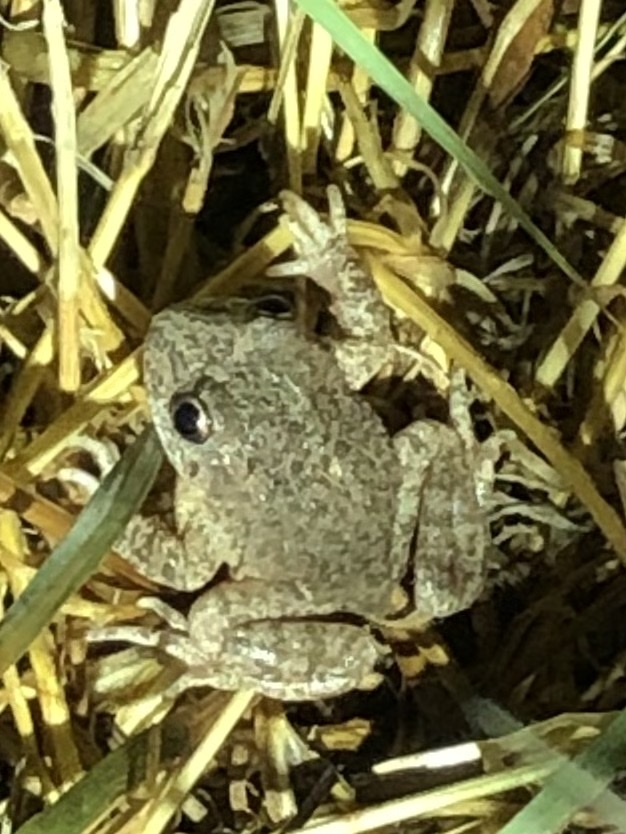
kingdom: Animalia
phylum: Chordata
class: Amphibia
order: Anura
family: Alytidae
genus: Alytes
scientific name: Alytes obstetricans
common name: Midwife toad
